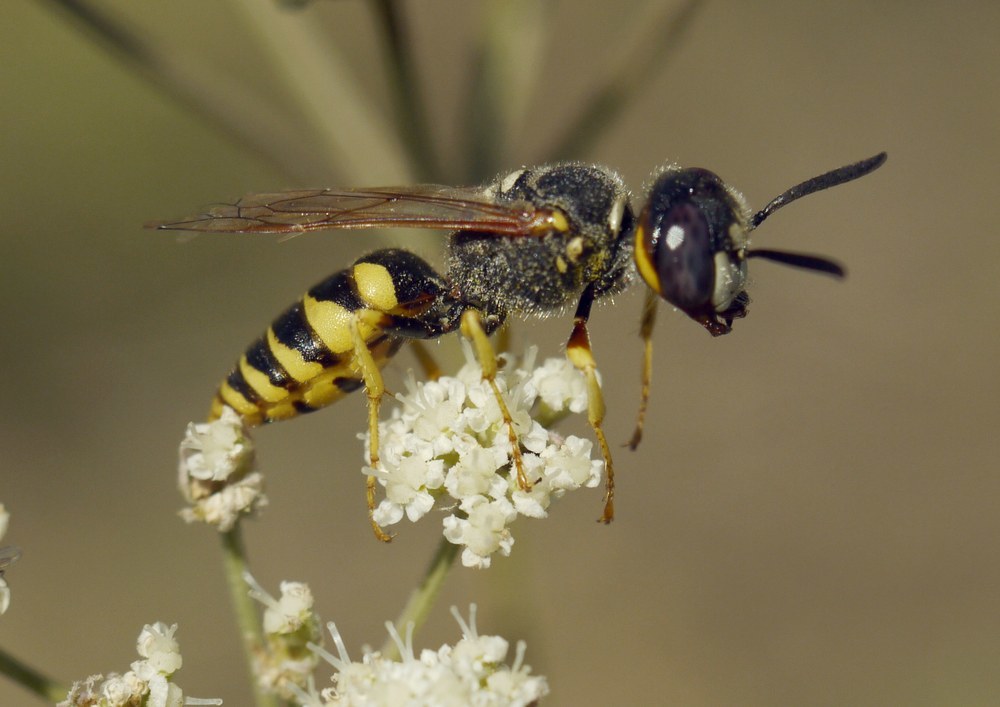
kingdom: Animalia
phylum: Arthropoda
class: Insecta
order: Hymenoptera
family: Crabronidae
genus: Philanthus
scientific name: Philanthus triangulum
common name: Bee wolf
